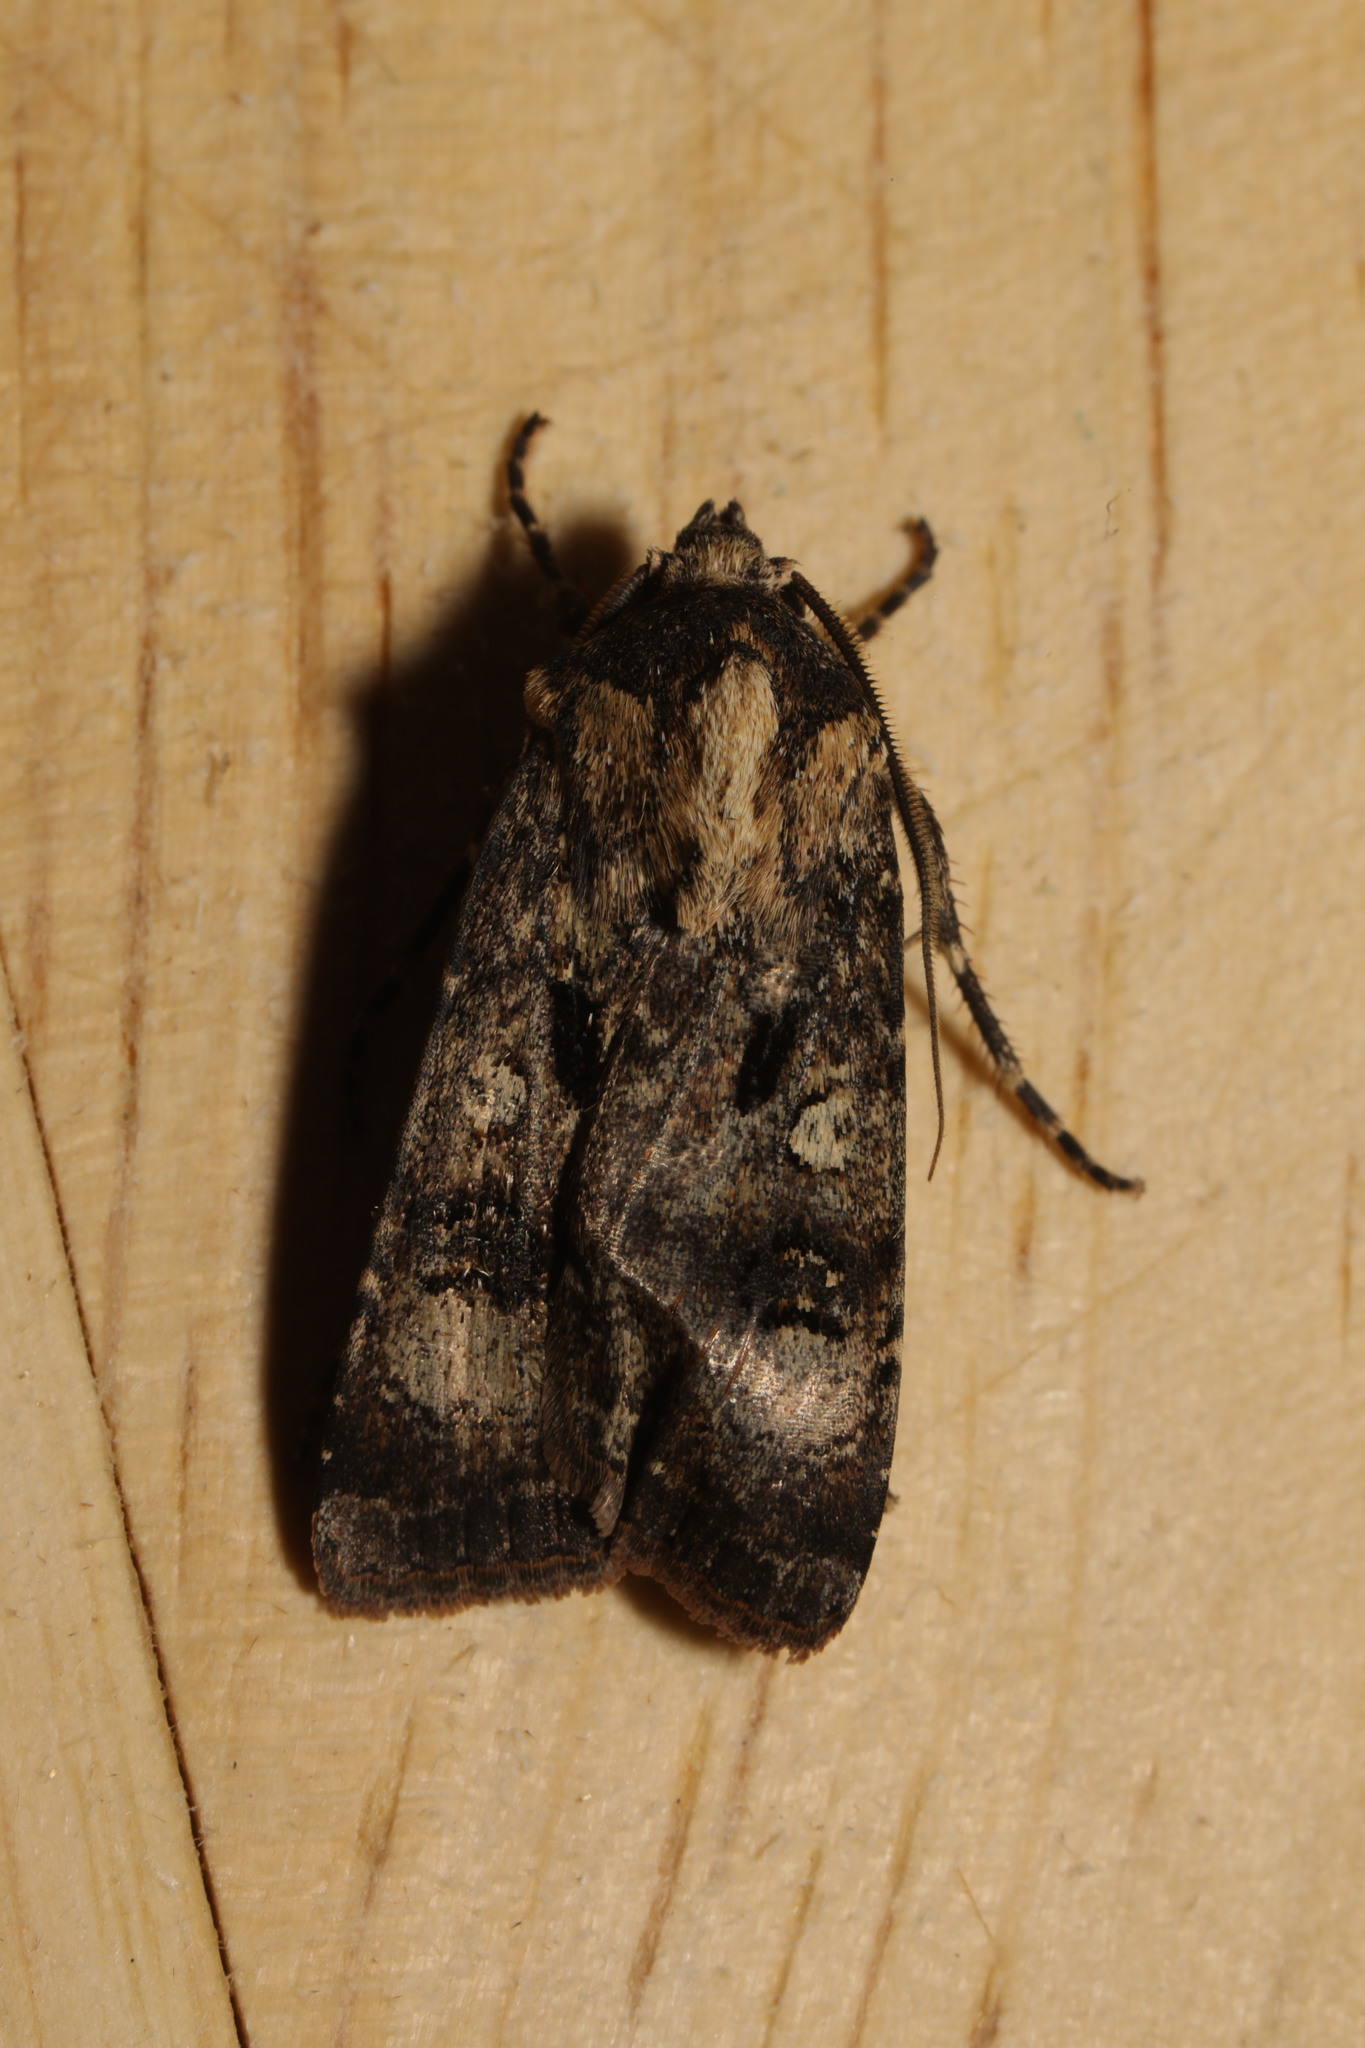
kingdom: Animalia
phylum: Arthropoda
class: Insecta
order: Lepidoptera
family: Noctuidae
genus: Agrotis
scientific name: Agrotis trux
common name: Crescent dart
